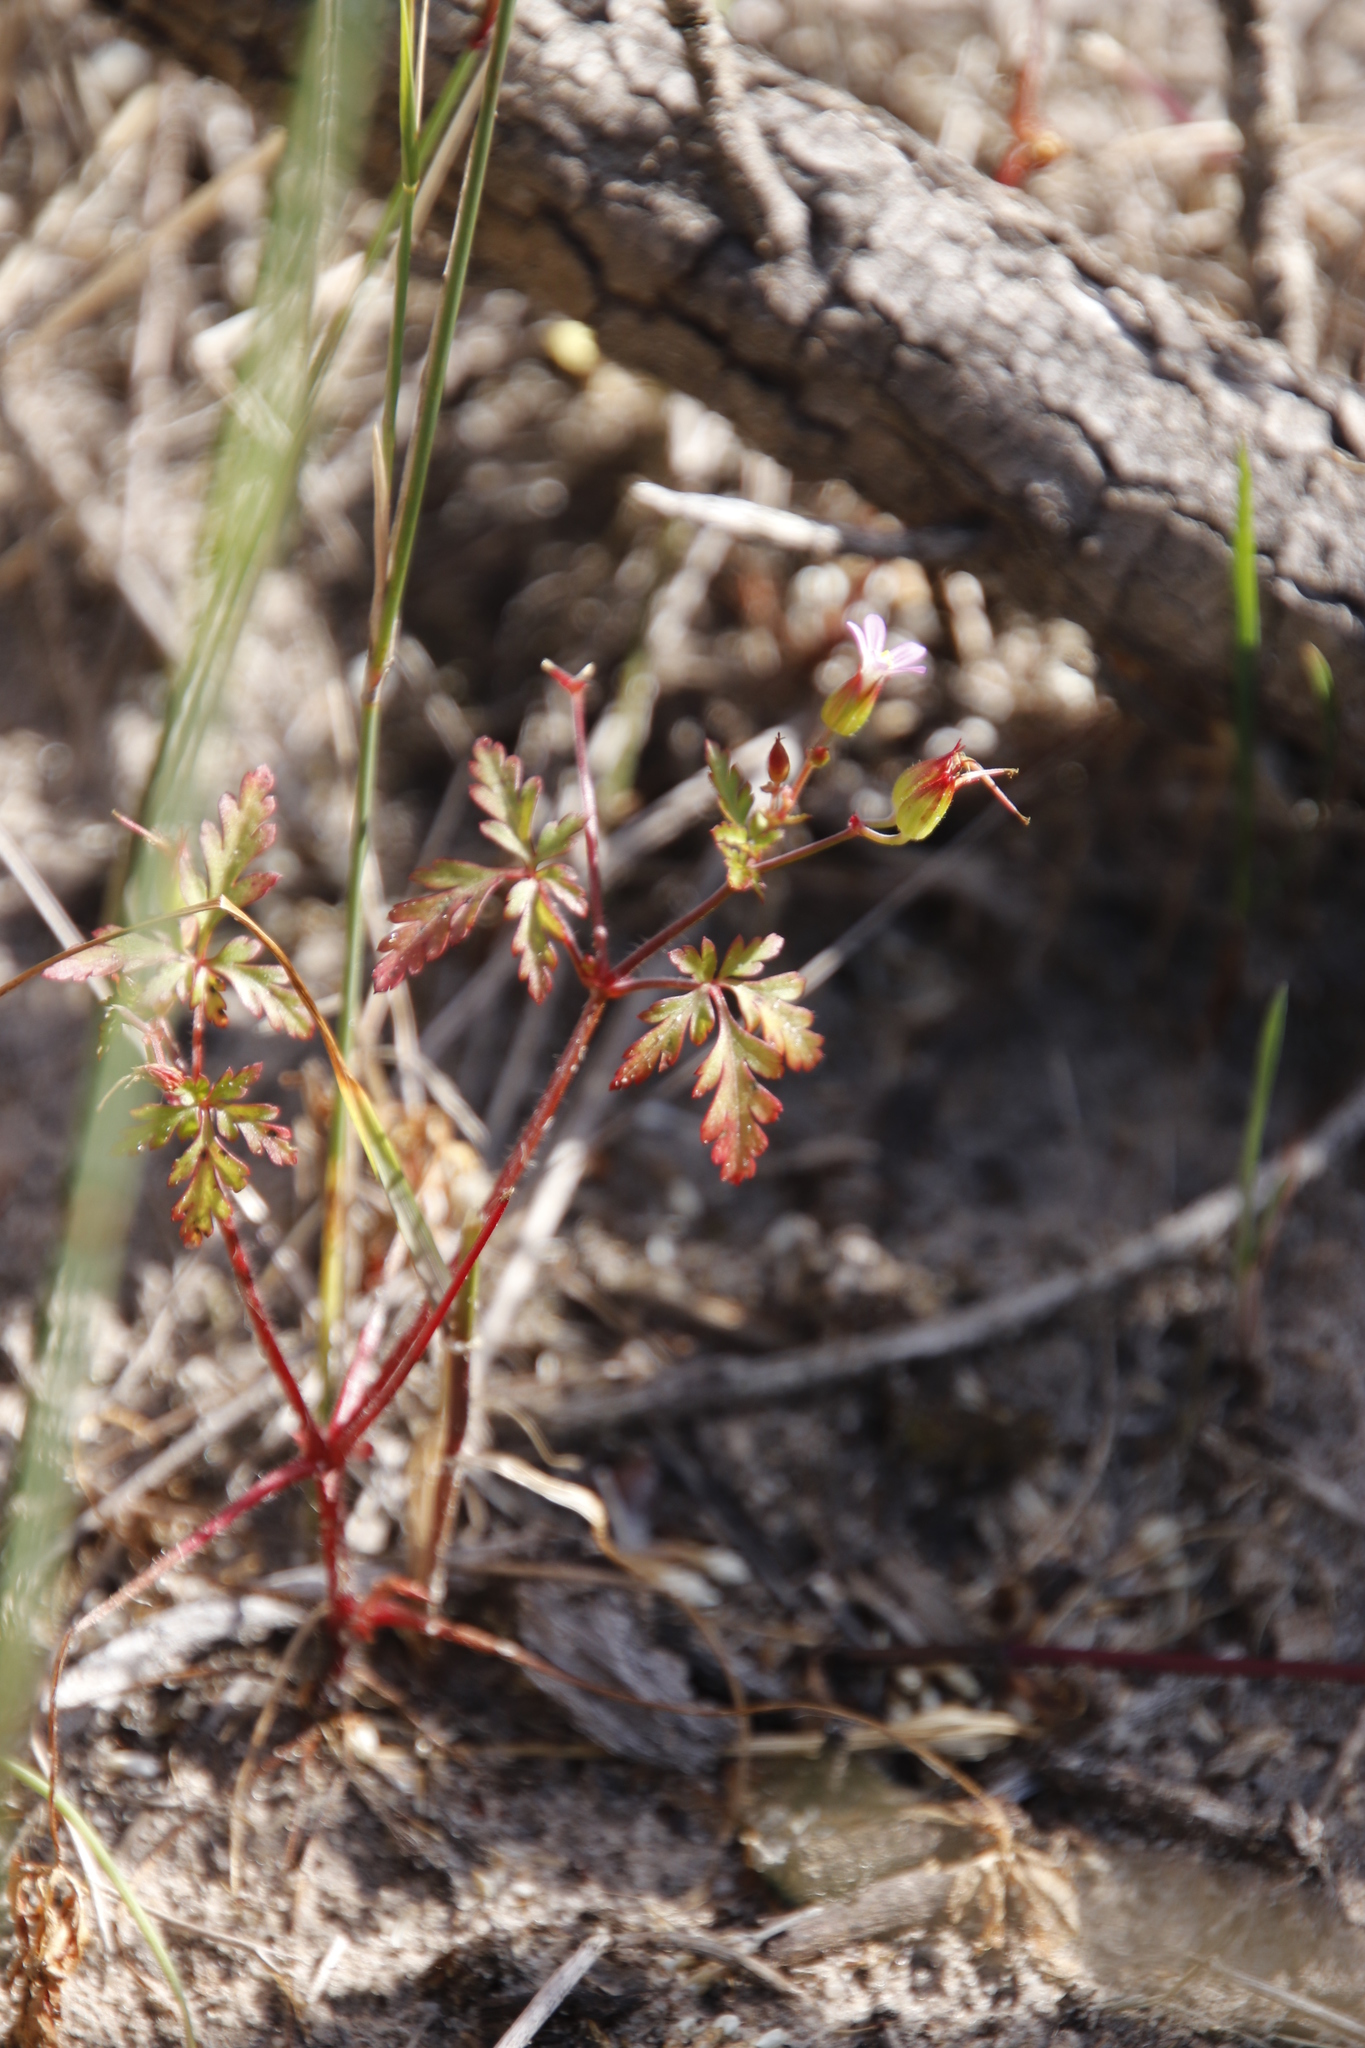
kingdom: Plantae
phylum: Tracheophyta
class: Magnoliopsida
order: Geraniales
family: Geraniaceae
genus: Geranium
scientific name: Geranium purpureum
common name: Little-robin
